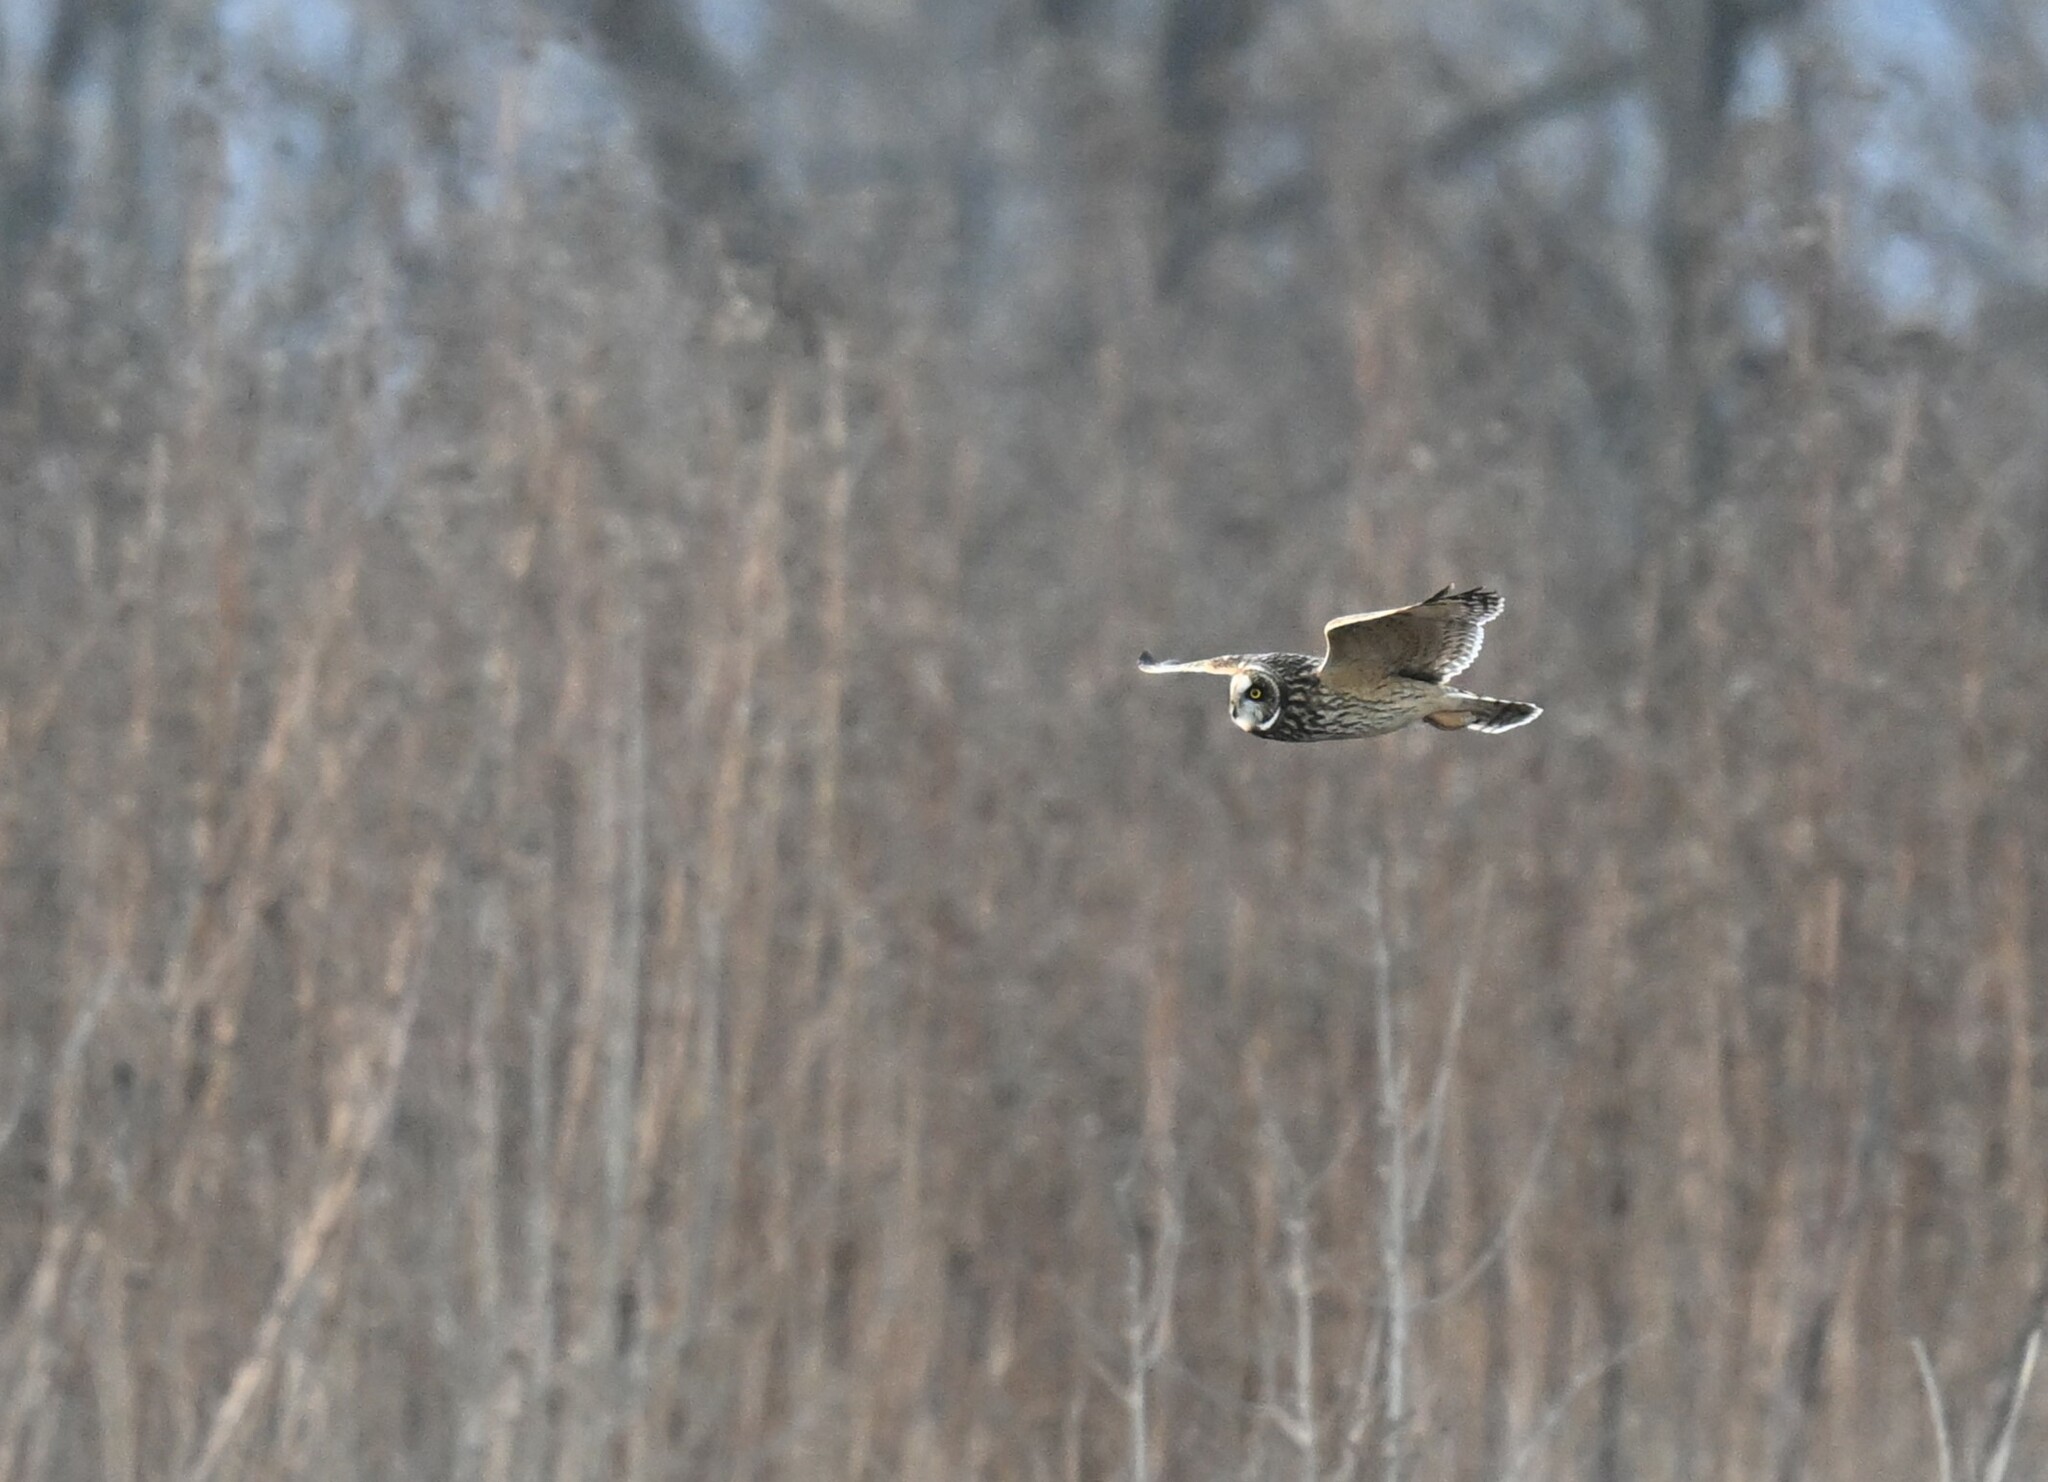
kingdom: Animalia
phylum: Chordata
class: Aves
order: Strigiformes
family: Strigidae
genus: Asio
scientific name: Asio flammeus
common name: Short-eared owl
